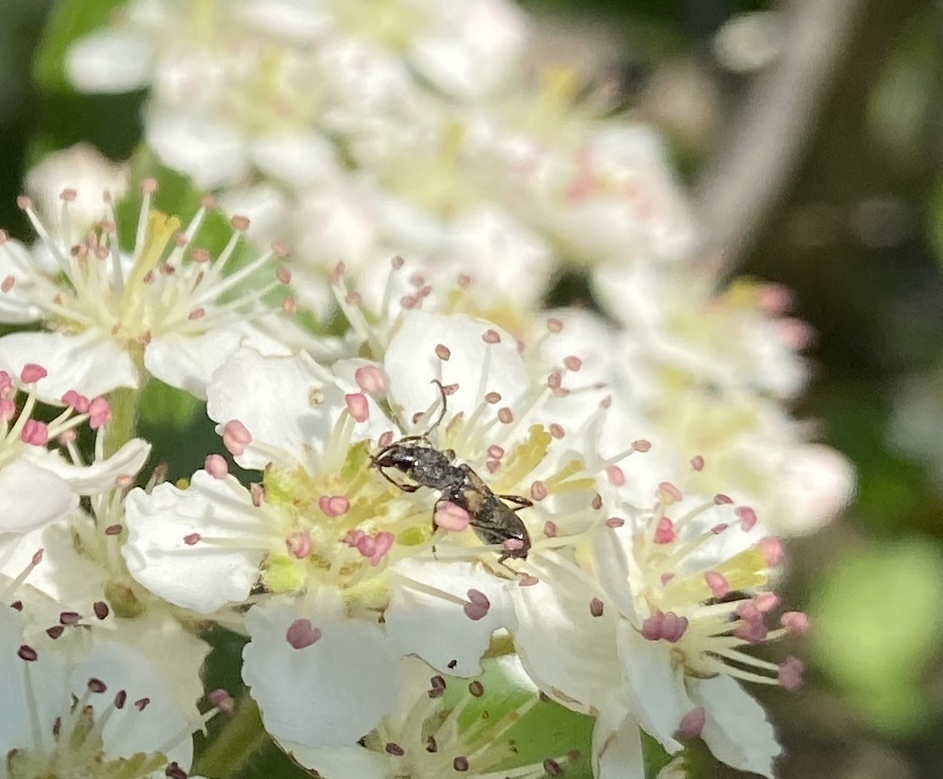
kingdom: Animalia
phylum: Arthropoda
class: Insecta
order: Coleoptera
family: Cerambycidae
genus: Molorchus
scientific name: Molorchus bimaculatus
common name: Bimaculate longhorn beetle
